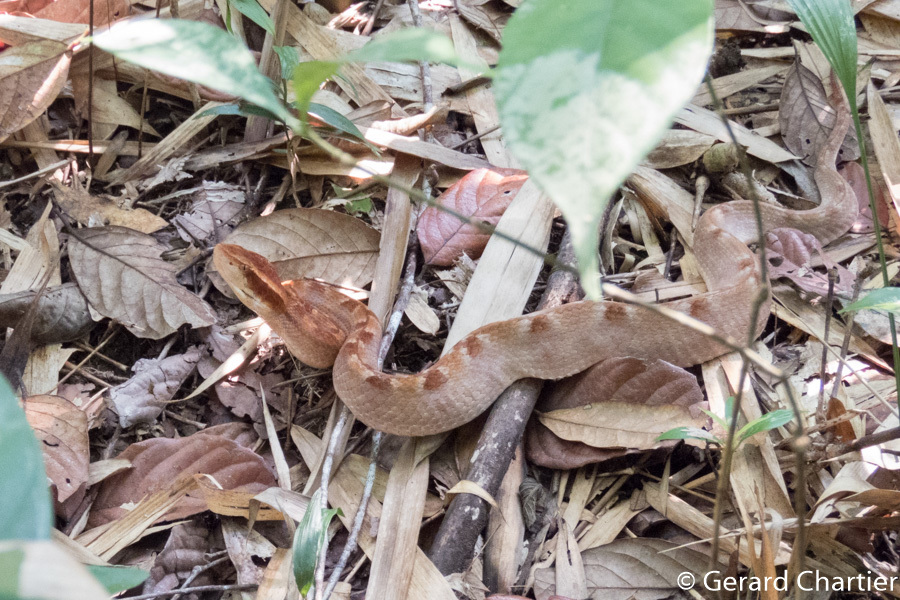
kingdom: Animalia
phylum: Chordata
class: Squamata
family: Viperidae
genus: Calloselasma
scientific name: Calloselasma rhodostoma
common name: Malayan pit viper
